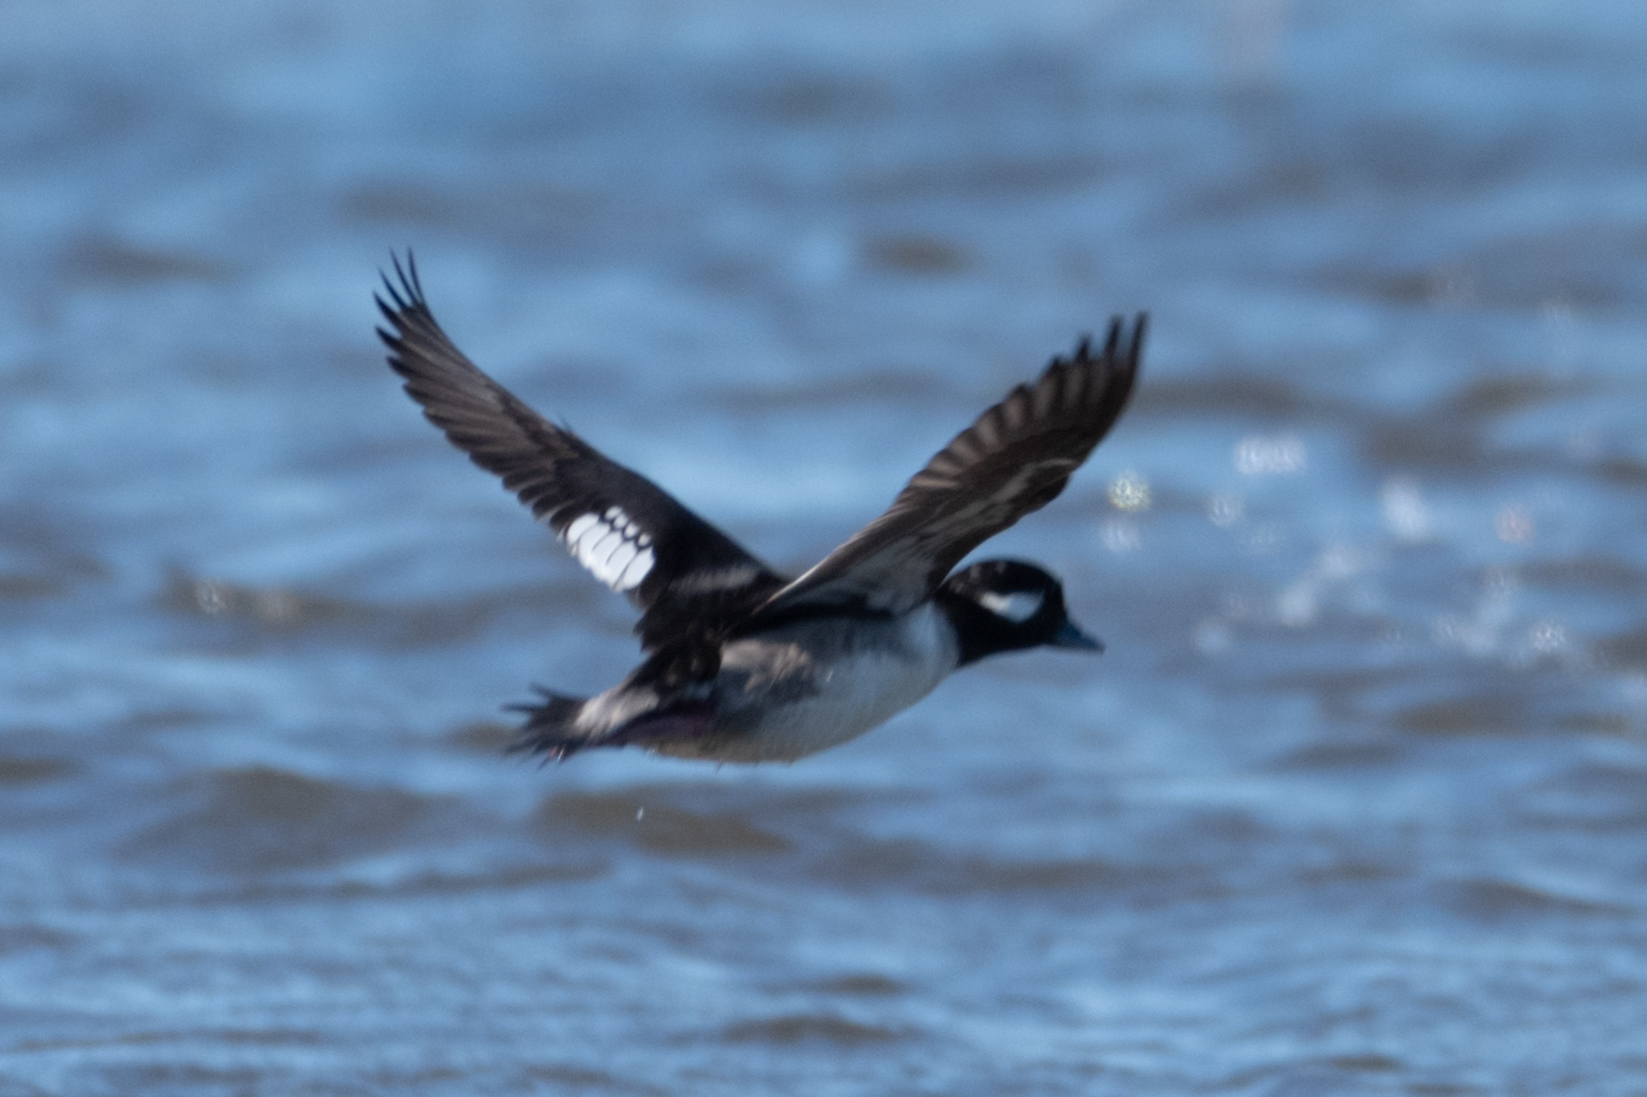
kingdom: Animalia
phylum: Chordata
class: Aves
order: Anseriformes
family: Anatidae
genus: Bucephala
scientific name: Bucephala albeola
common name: Bufflehead
